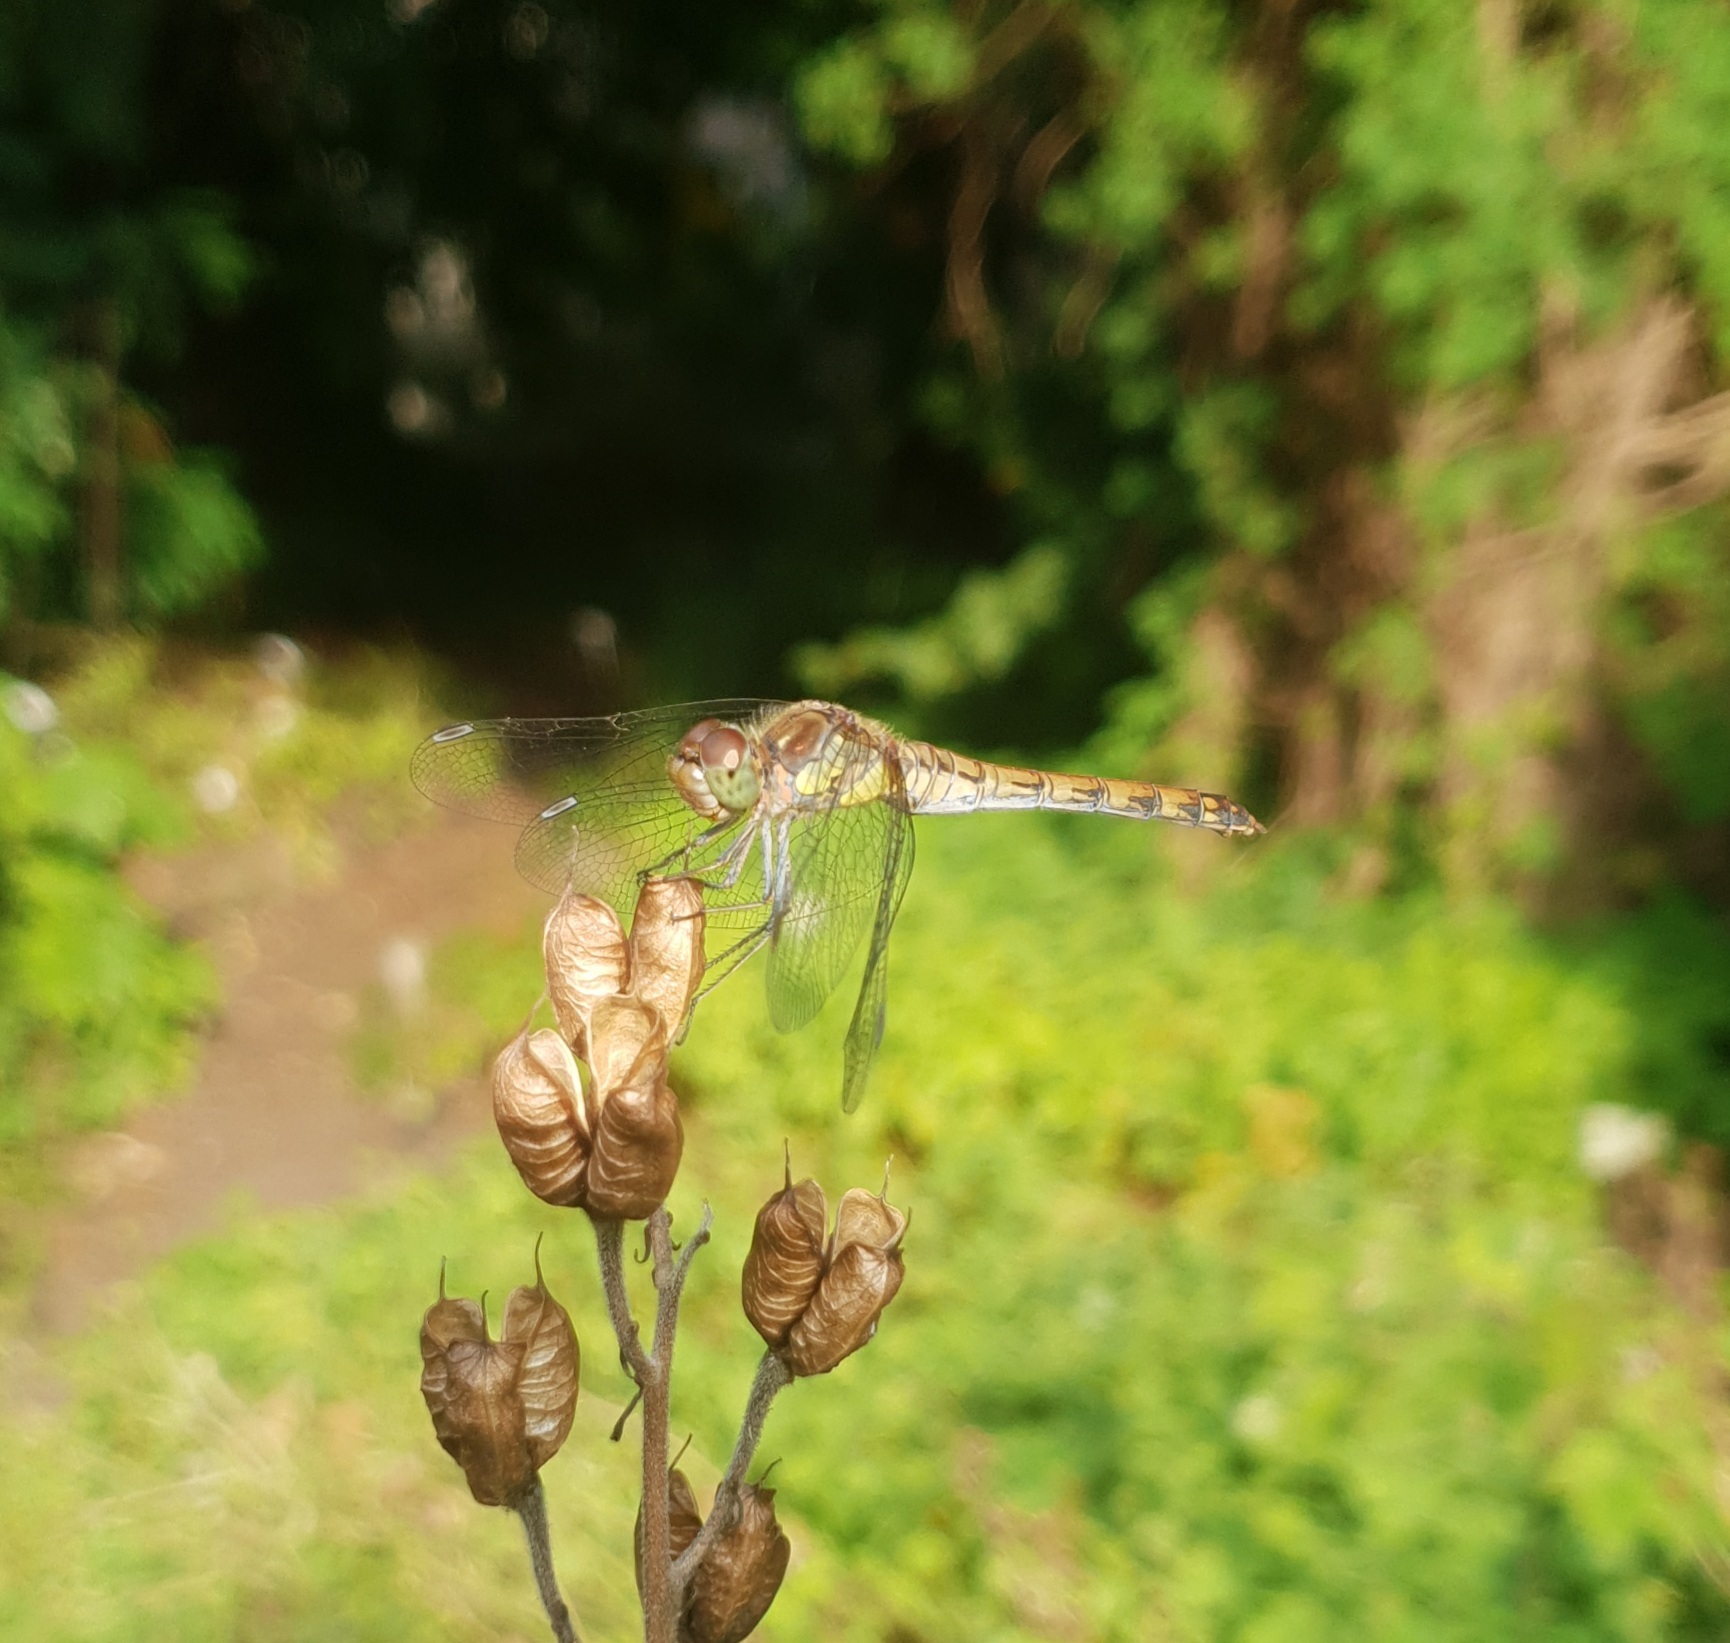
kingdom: Animalia
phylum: Arthropoda
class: Insecta
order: Odonata
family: Libellulidae
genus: Sympetrum
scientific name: Sympetrum striolatum
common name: Common darter
